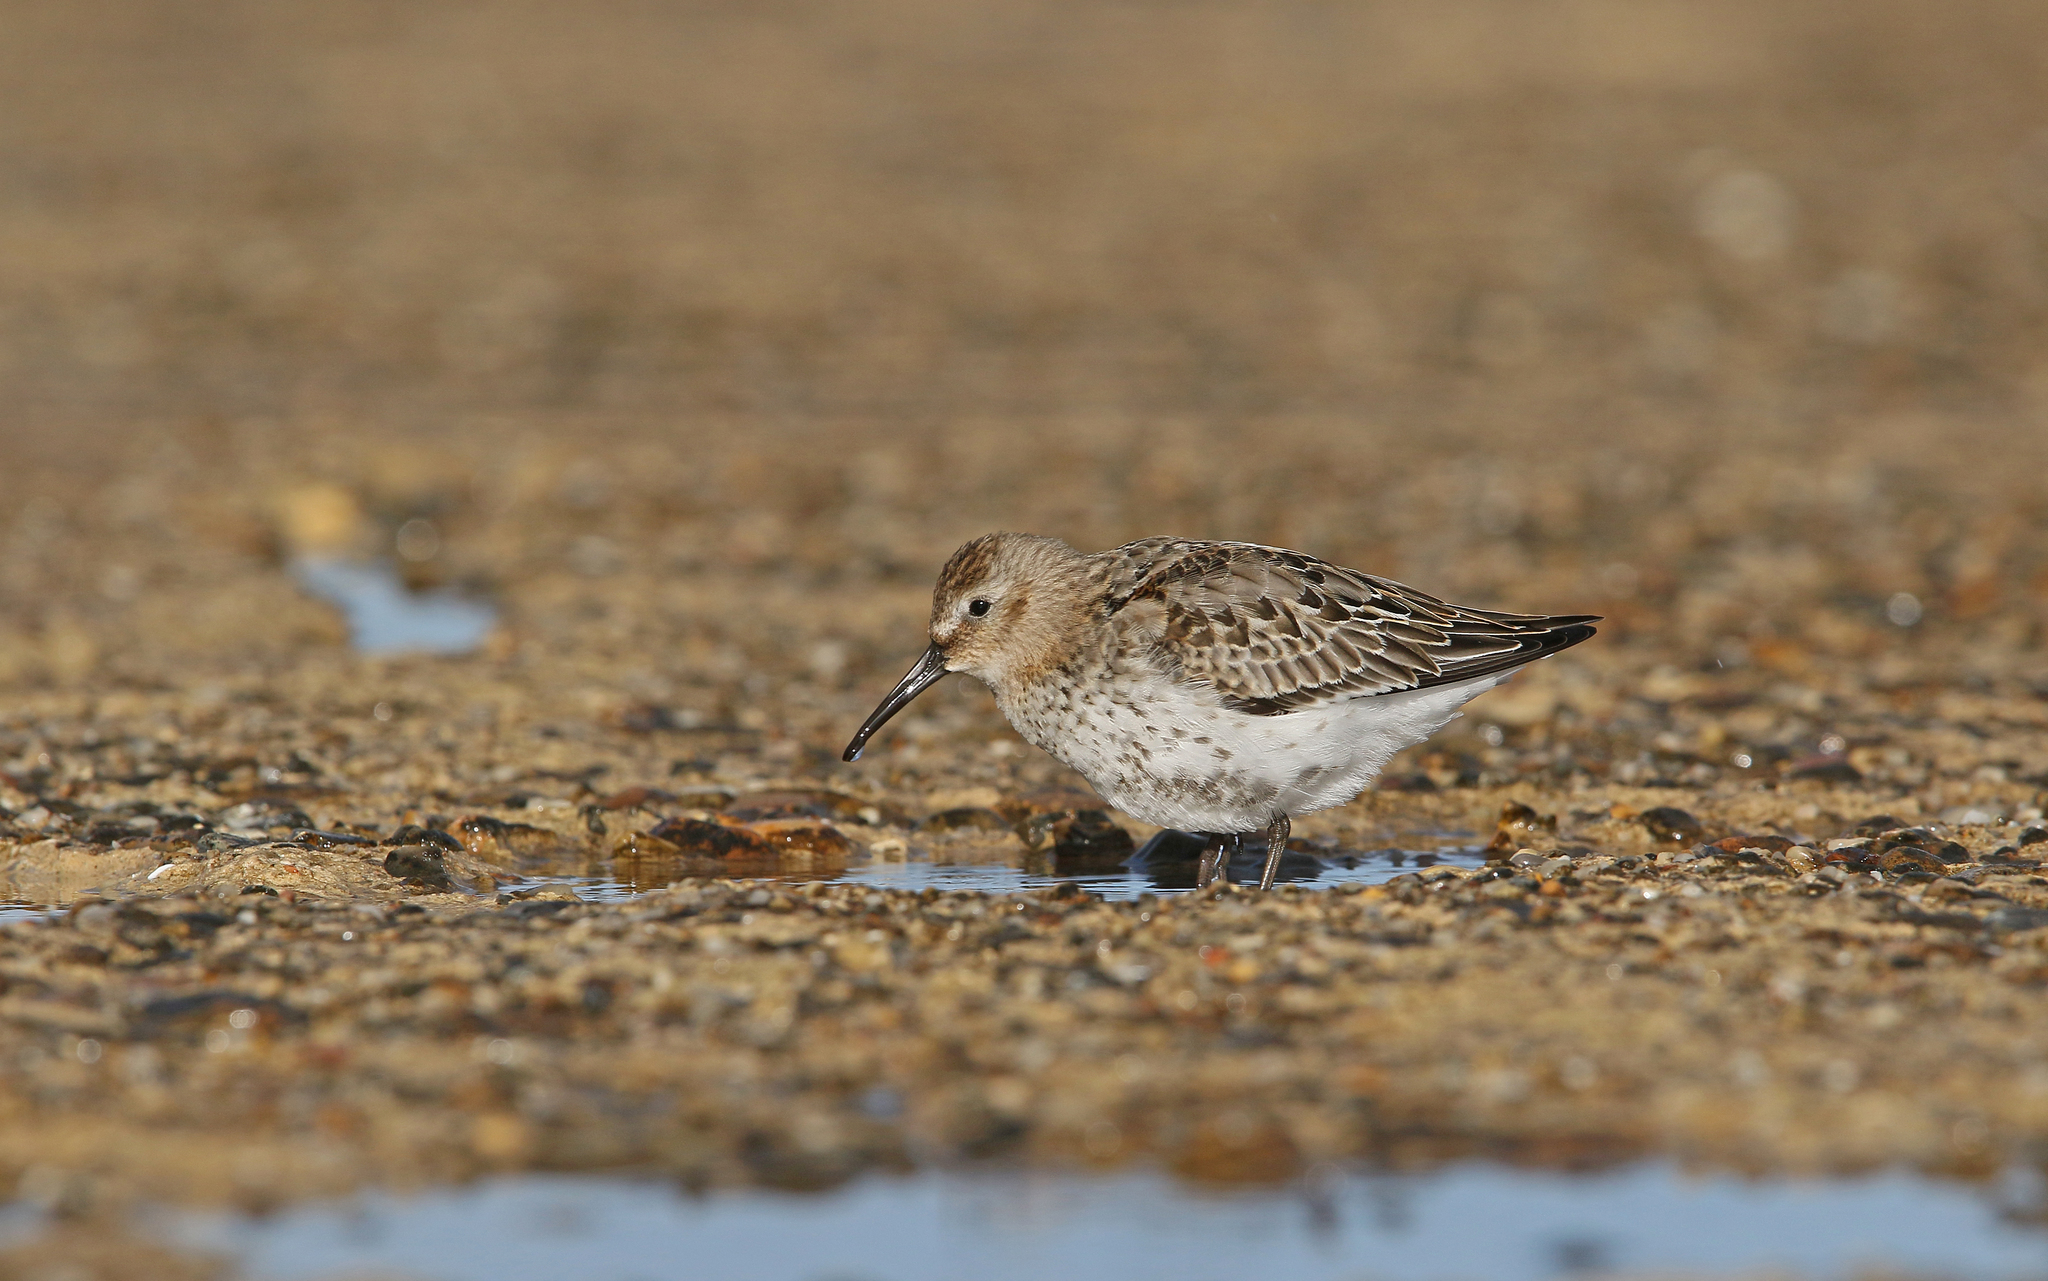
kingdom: Animalia
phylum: Chordata
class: Aves
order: Charadriiformes
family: Scolopacidae
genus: Calidris
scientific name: Calidris alpina
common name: Dunlin
